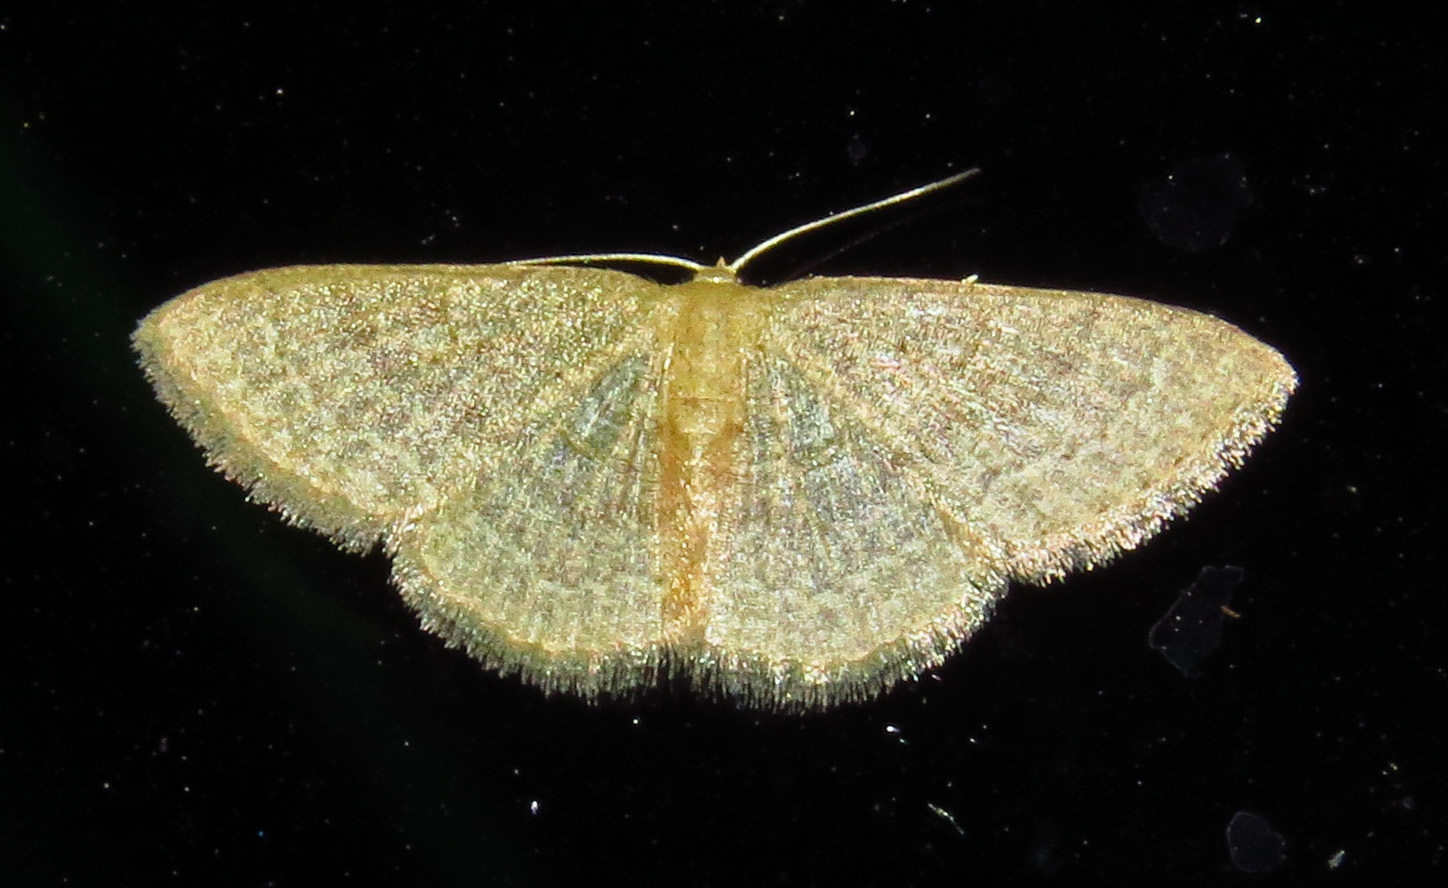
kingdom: Animalia
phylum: Arthropoda
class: Insecta
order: Lepidoptera
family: Geometridae
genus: Pleuroprucha
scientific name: Pleuroprucha insulsaria
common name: Common tan wave
